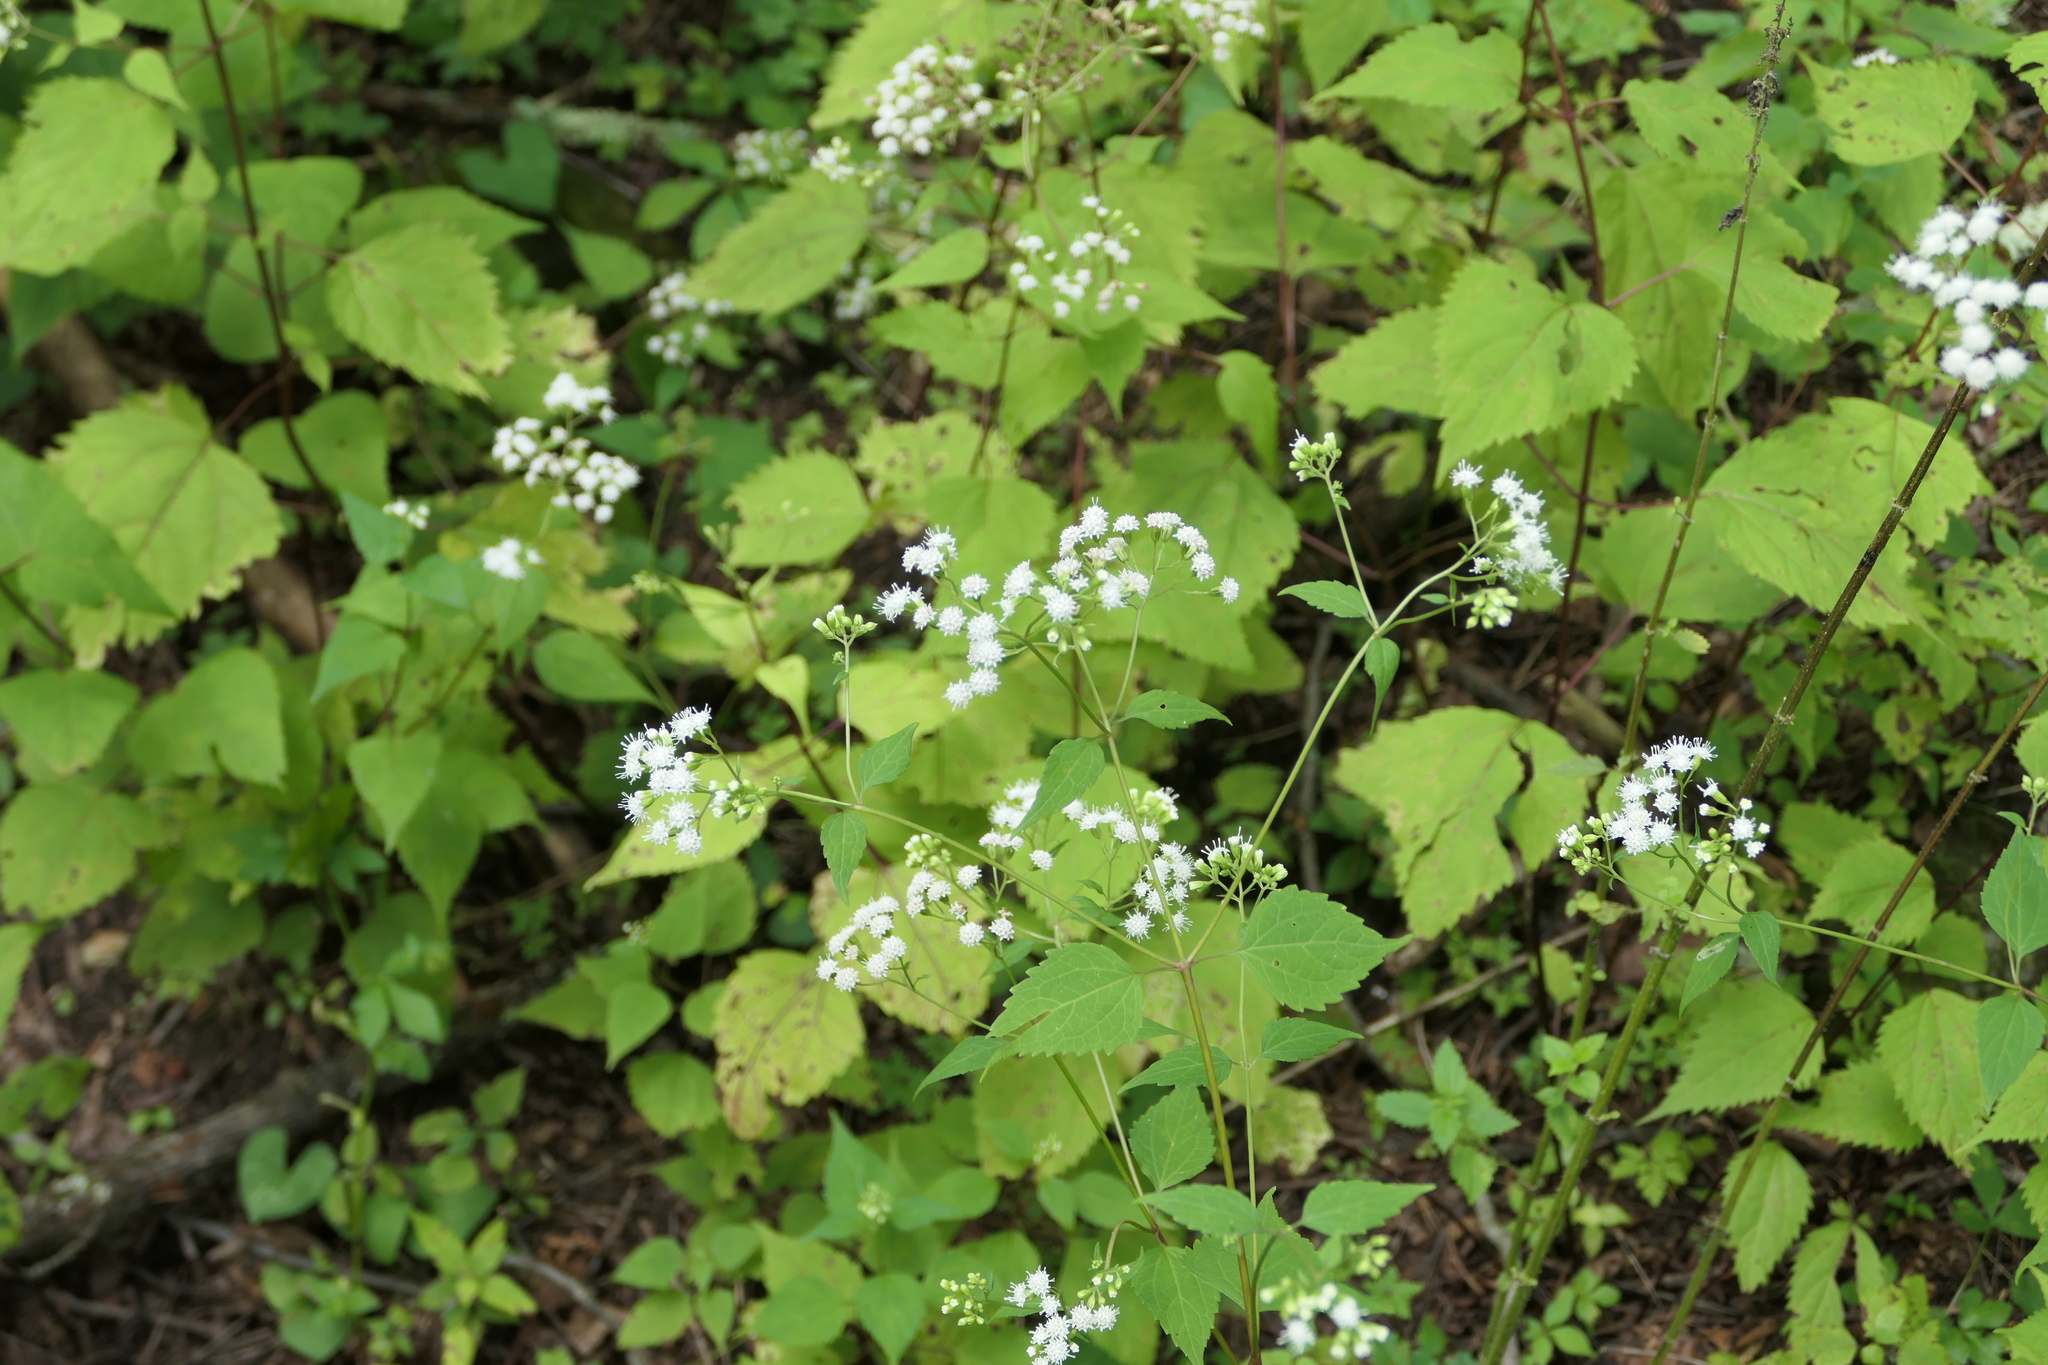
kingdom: Plantae
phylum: Tracheophyta
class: Magnoliopsida
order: Asterales
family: Asteraceae
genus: Ageratina
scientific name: Ageratina altissima
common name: White snakeroot
